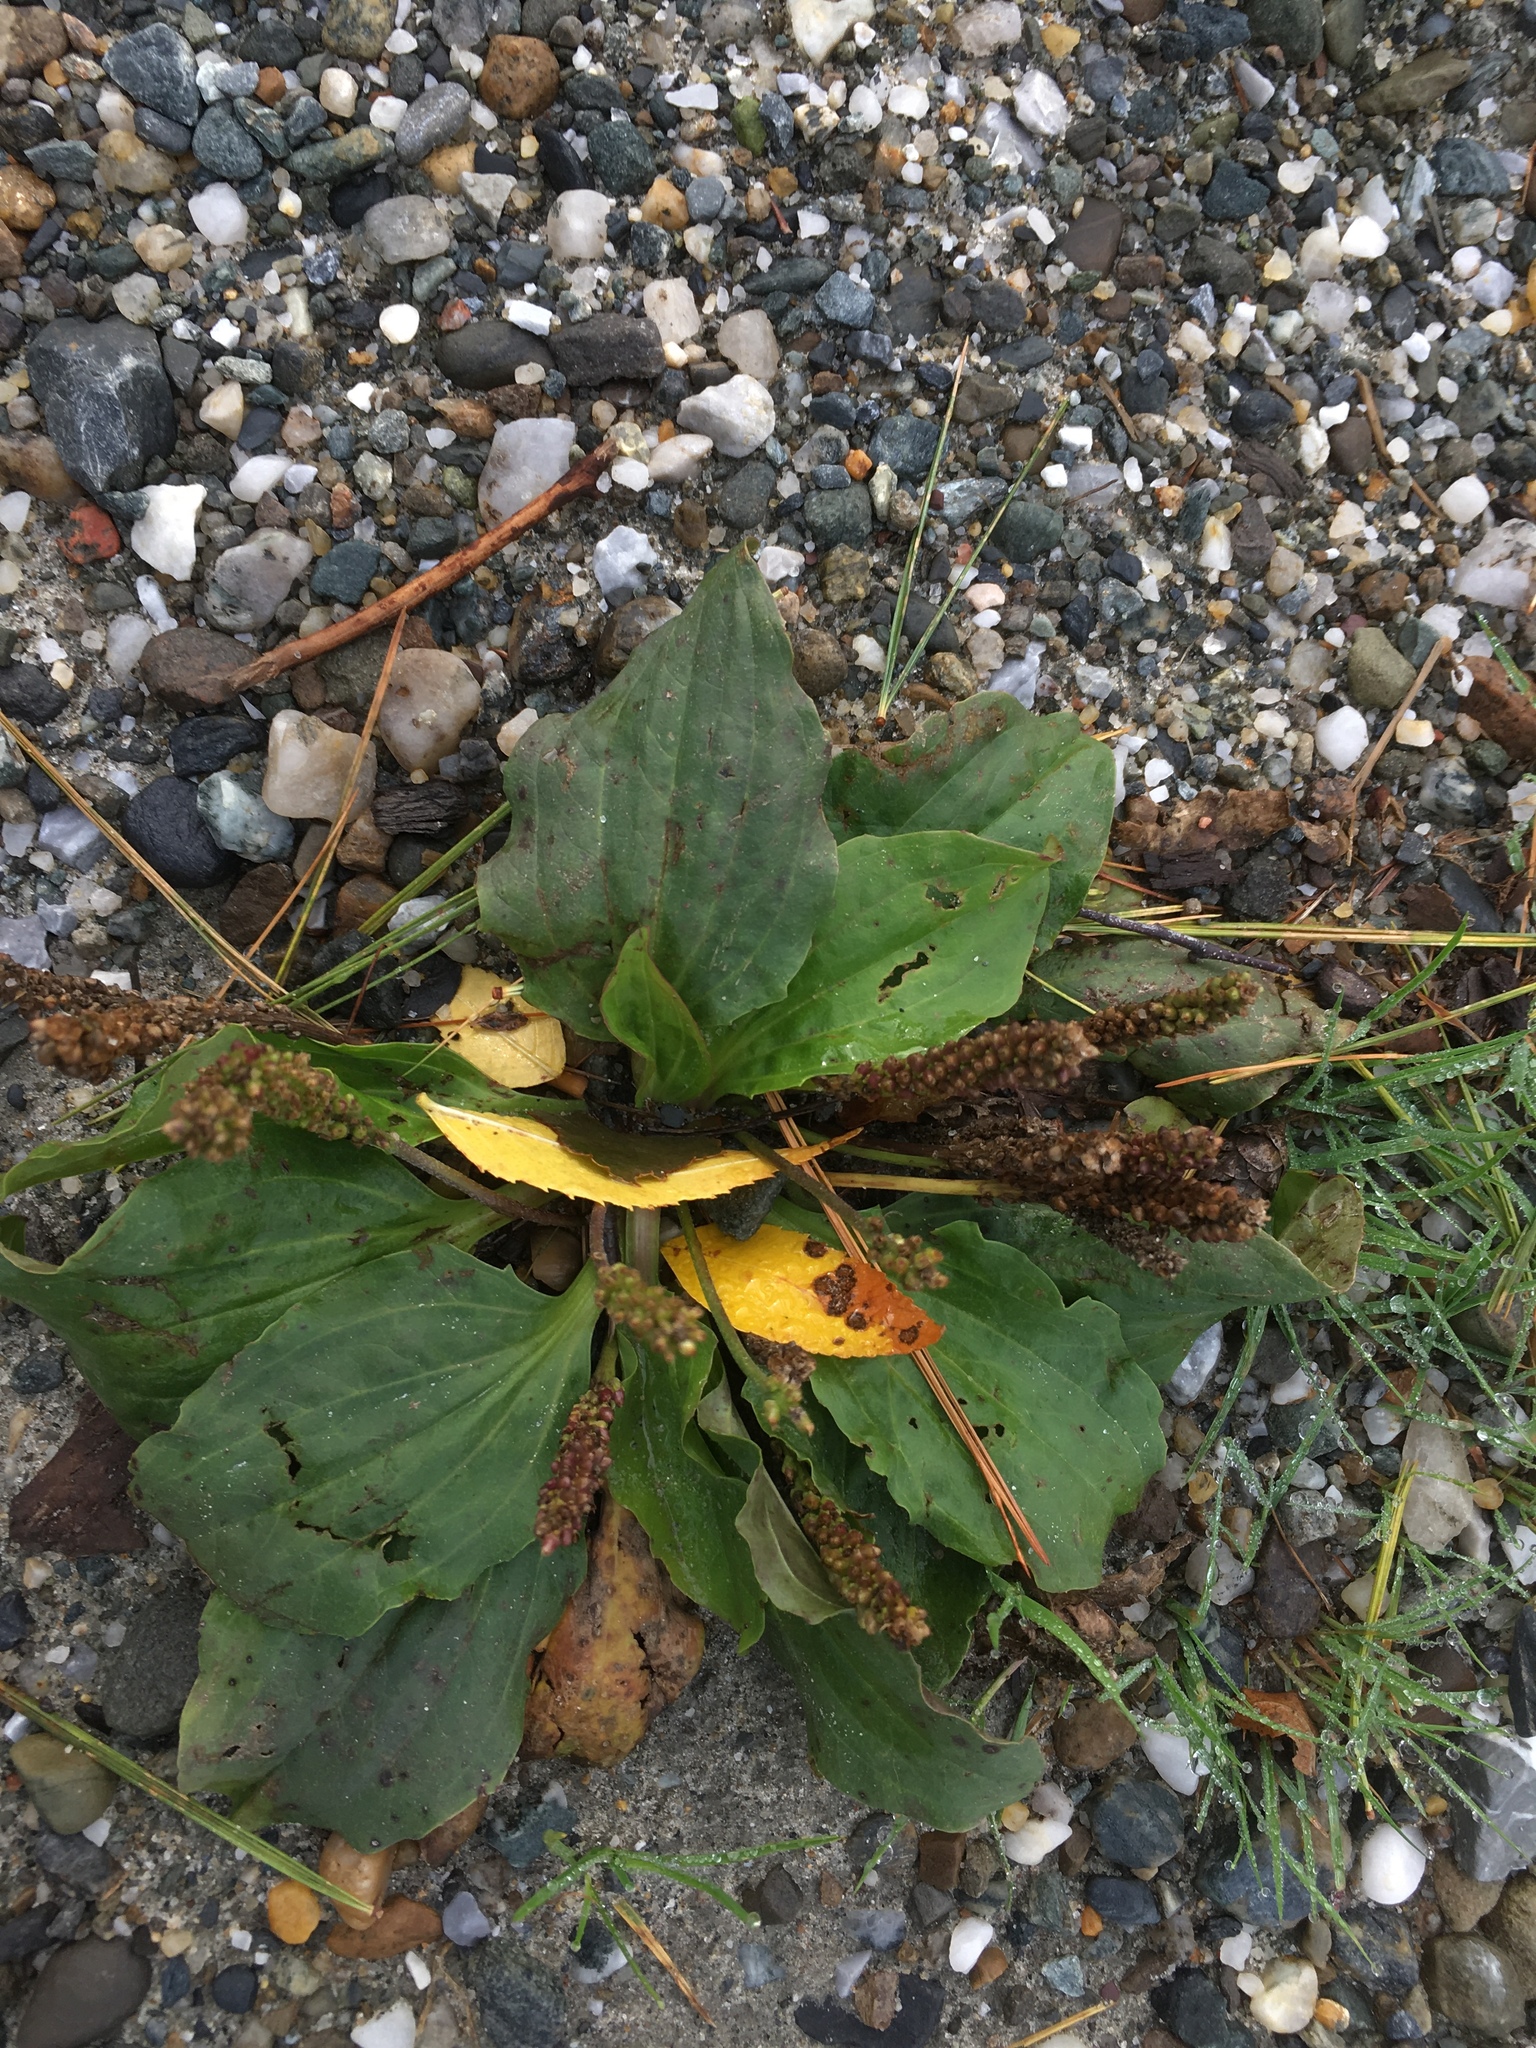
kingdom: Plantae
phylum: Tracheophyta
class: Magnoliopsida
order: Lamiales
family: Plantaginaceae
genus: Plantago
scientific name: Plantago major
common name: Common plantain
